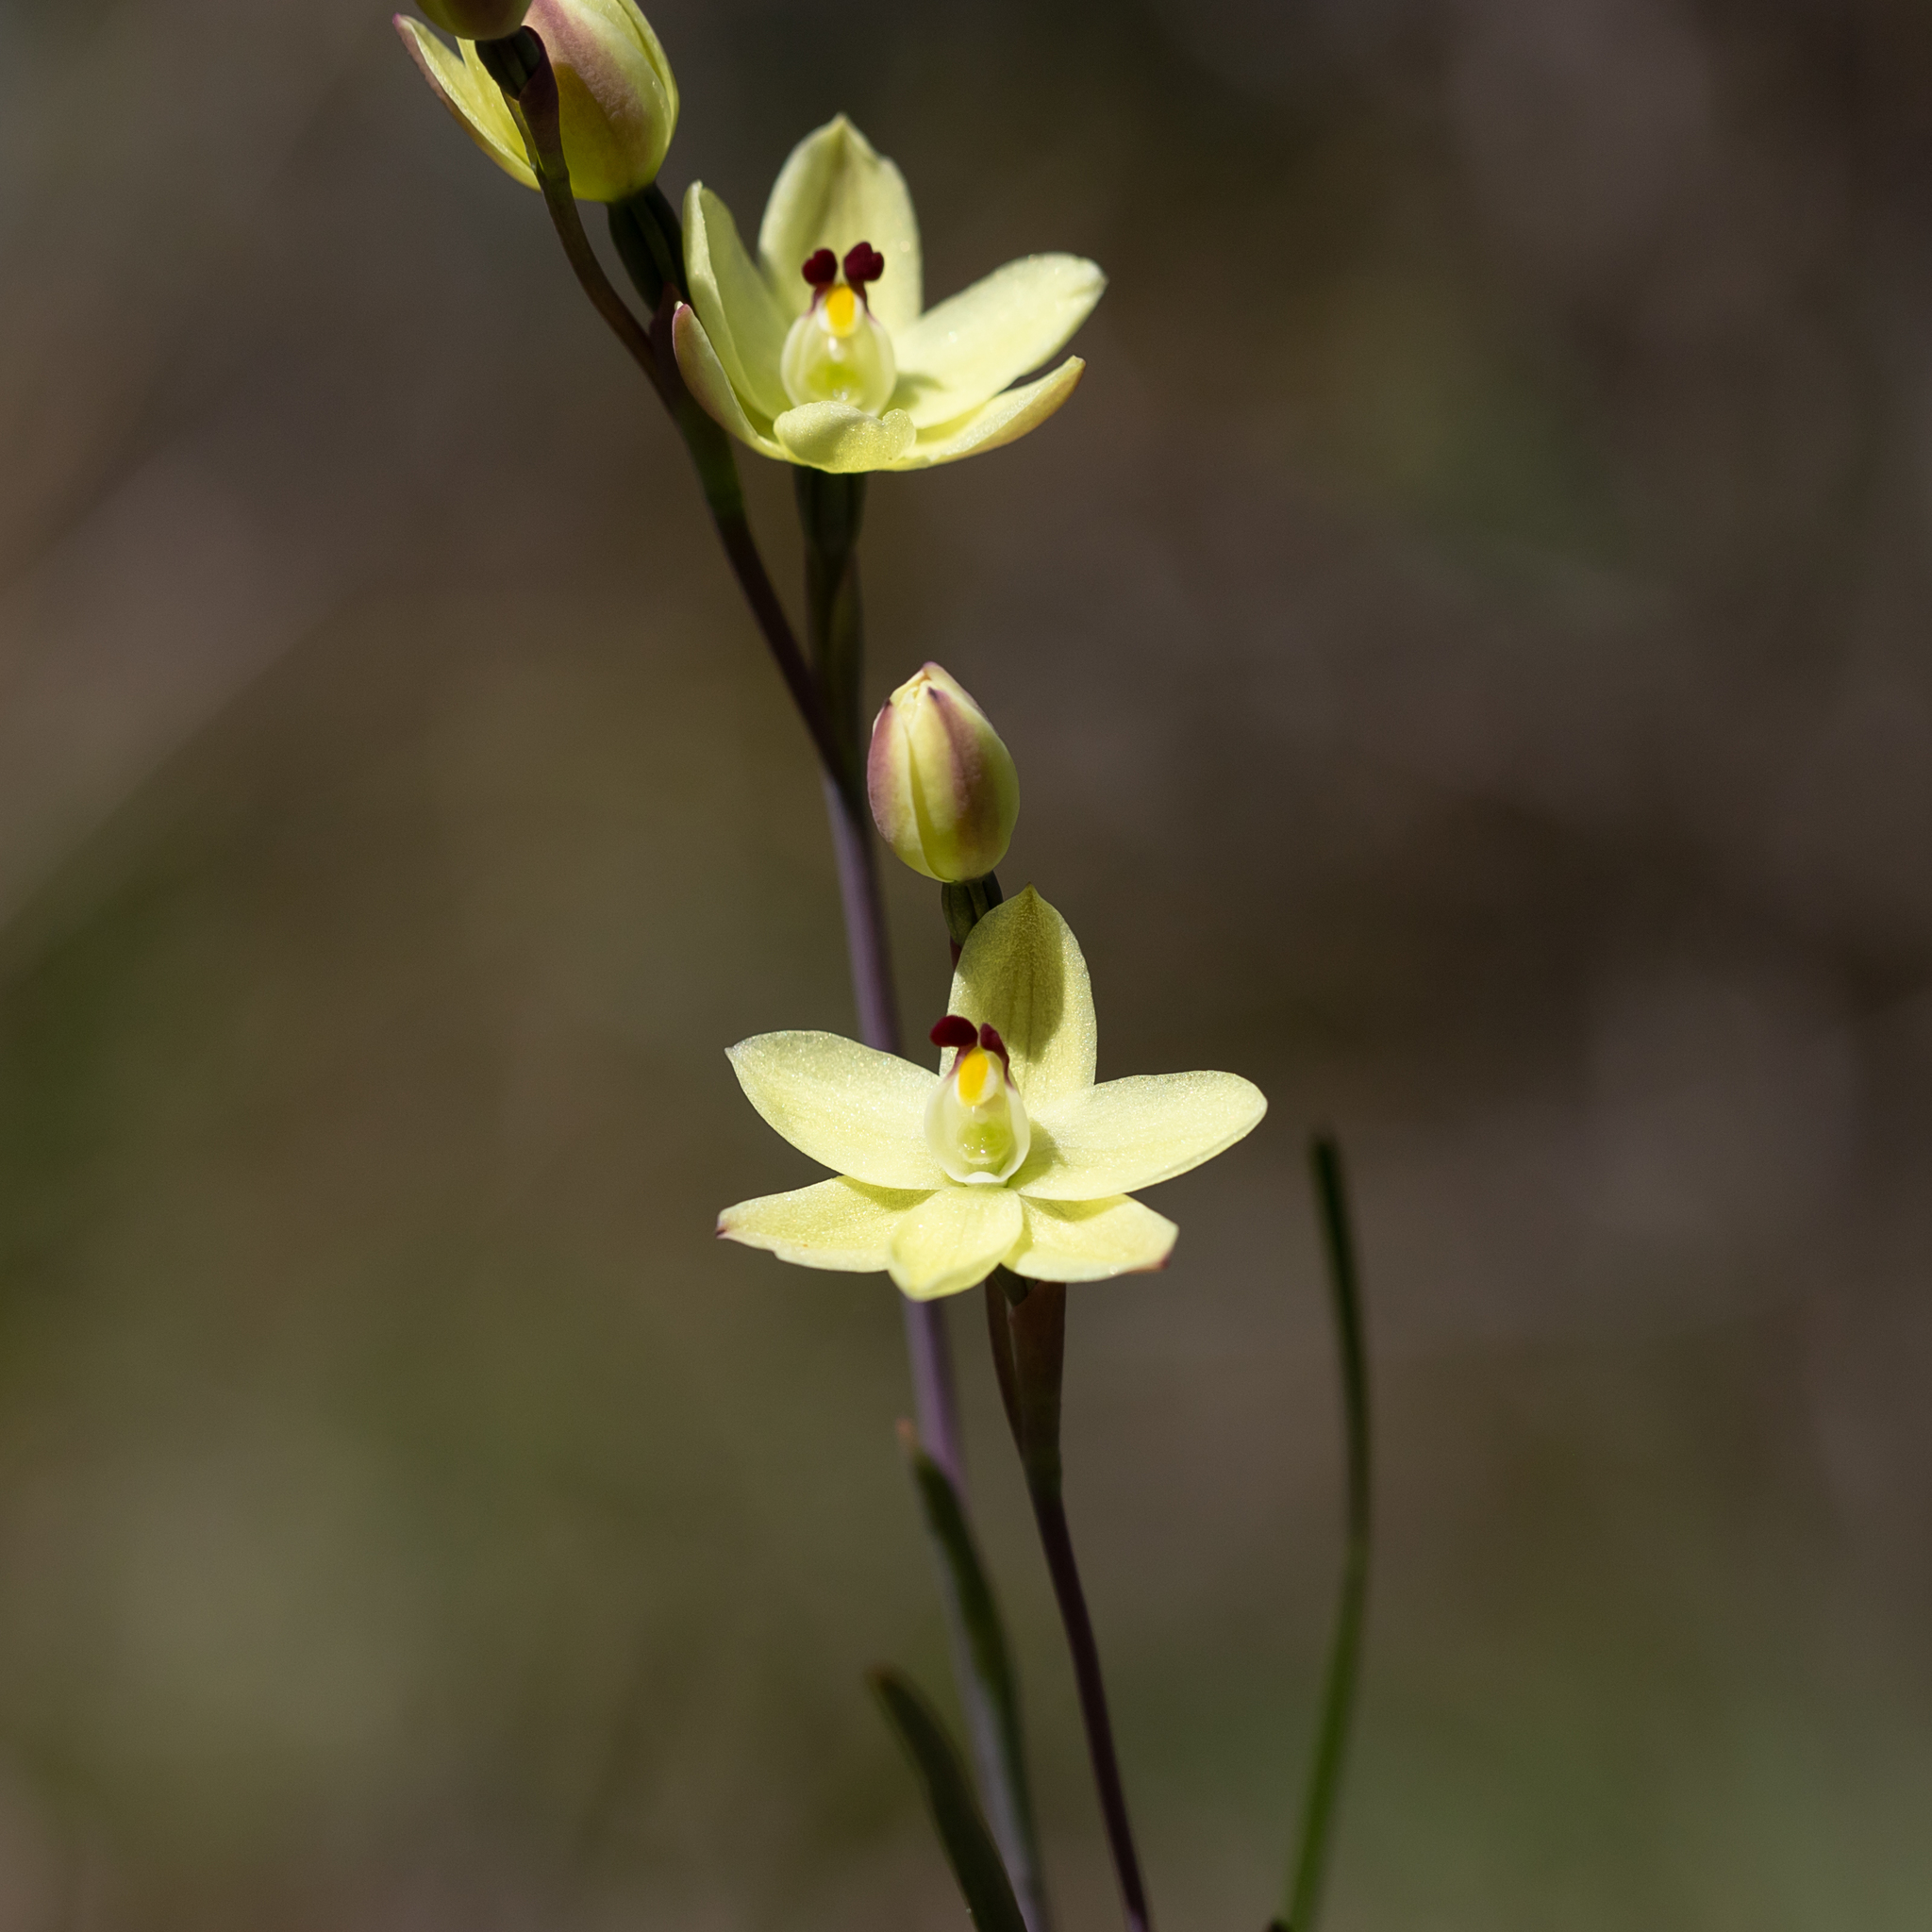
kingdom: Plantae
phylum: Tracheophyta
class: Liliopsida
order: Asparagales
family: Orchidaceae
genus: Thelymitra
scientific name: Thelymitra antennifera
